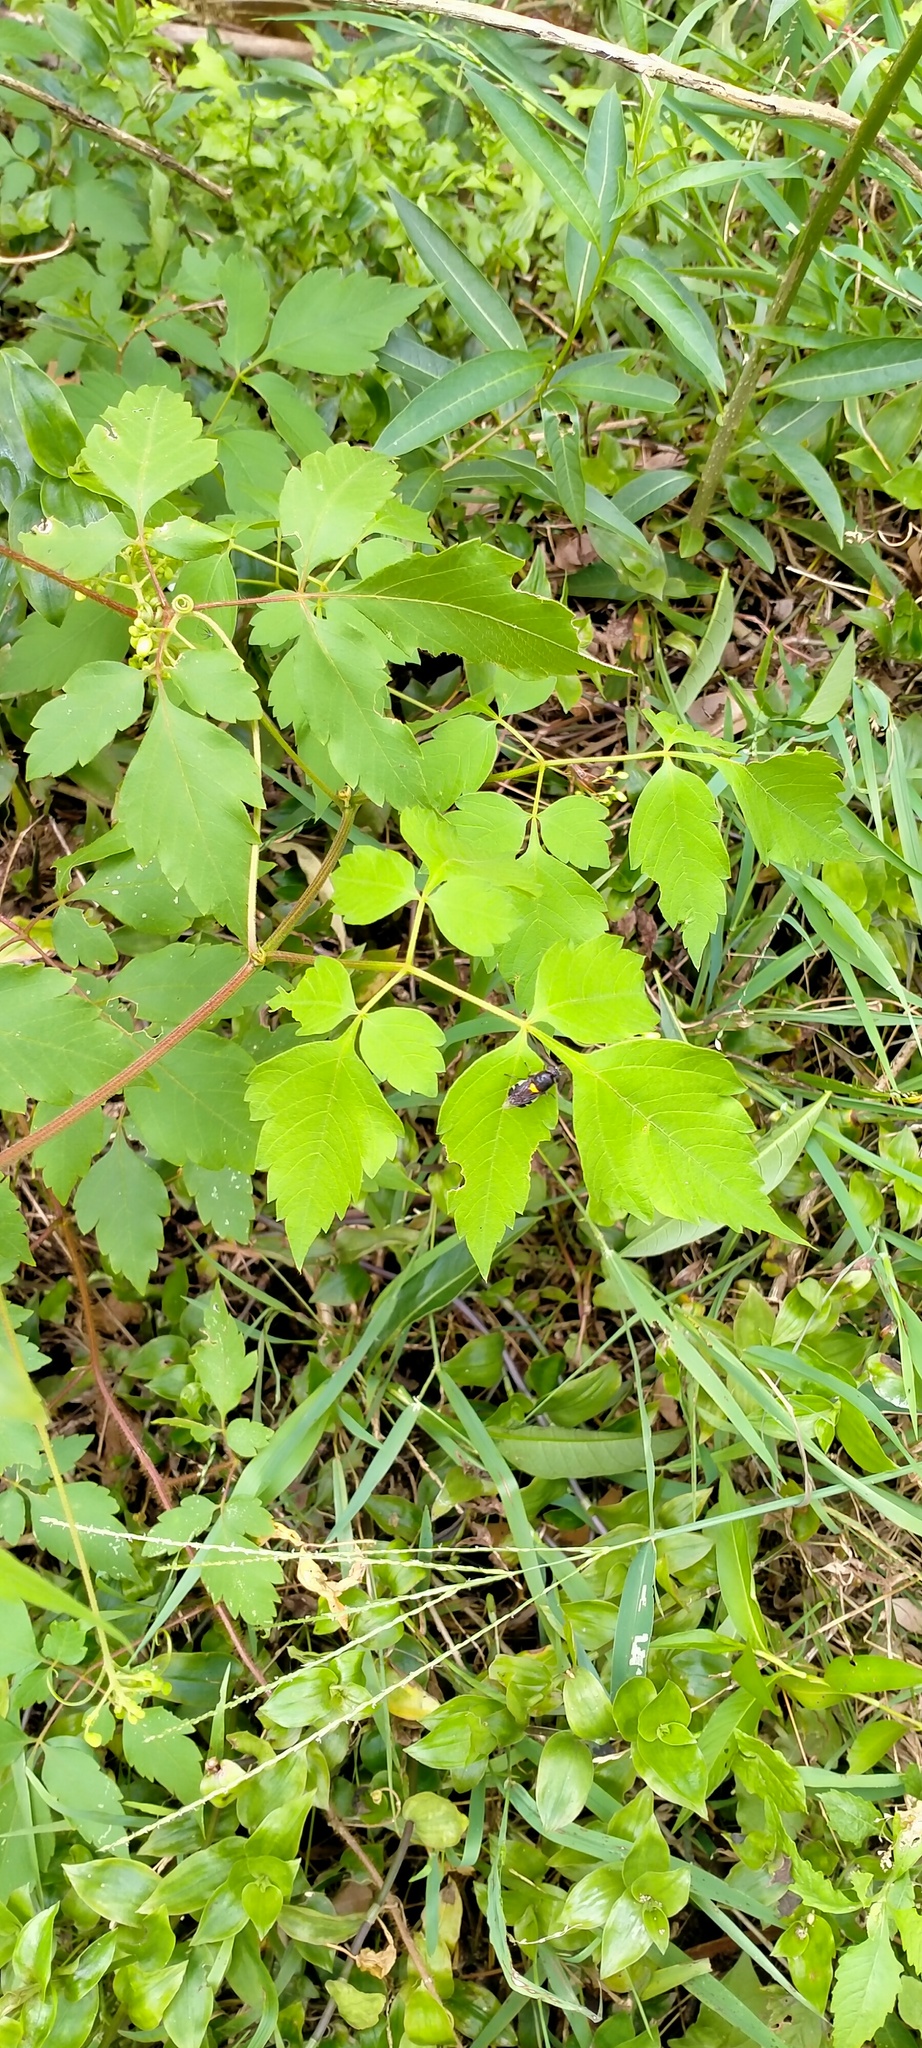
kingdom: Animalia
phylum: Arthropoda
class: Insecta
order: Diptera
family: Stratiomyidae
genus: Odontomyia
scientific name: Odontomyia hunteri
